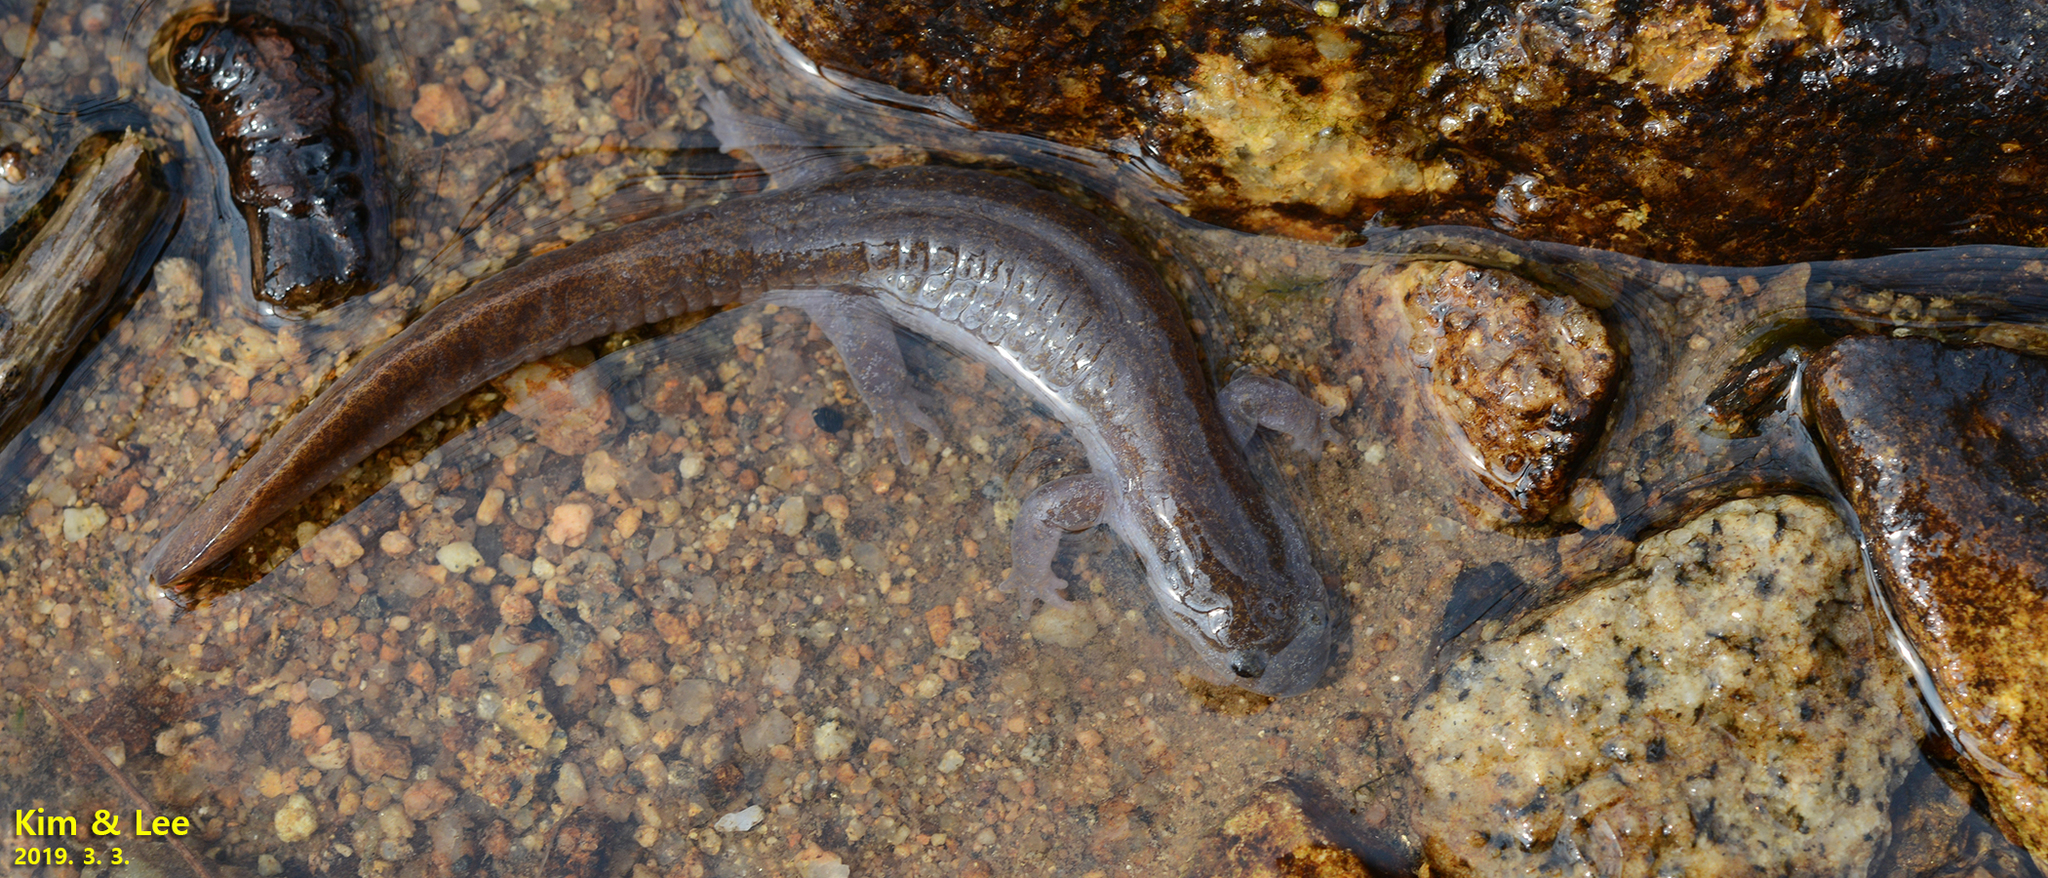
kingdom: Animalia
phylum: Chordata
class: Amphibia
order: Caudata
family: Hynobiidae
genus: Hynobius
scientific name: Hynobius perplicatus
